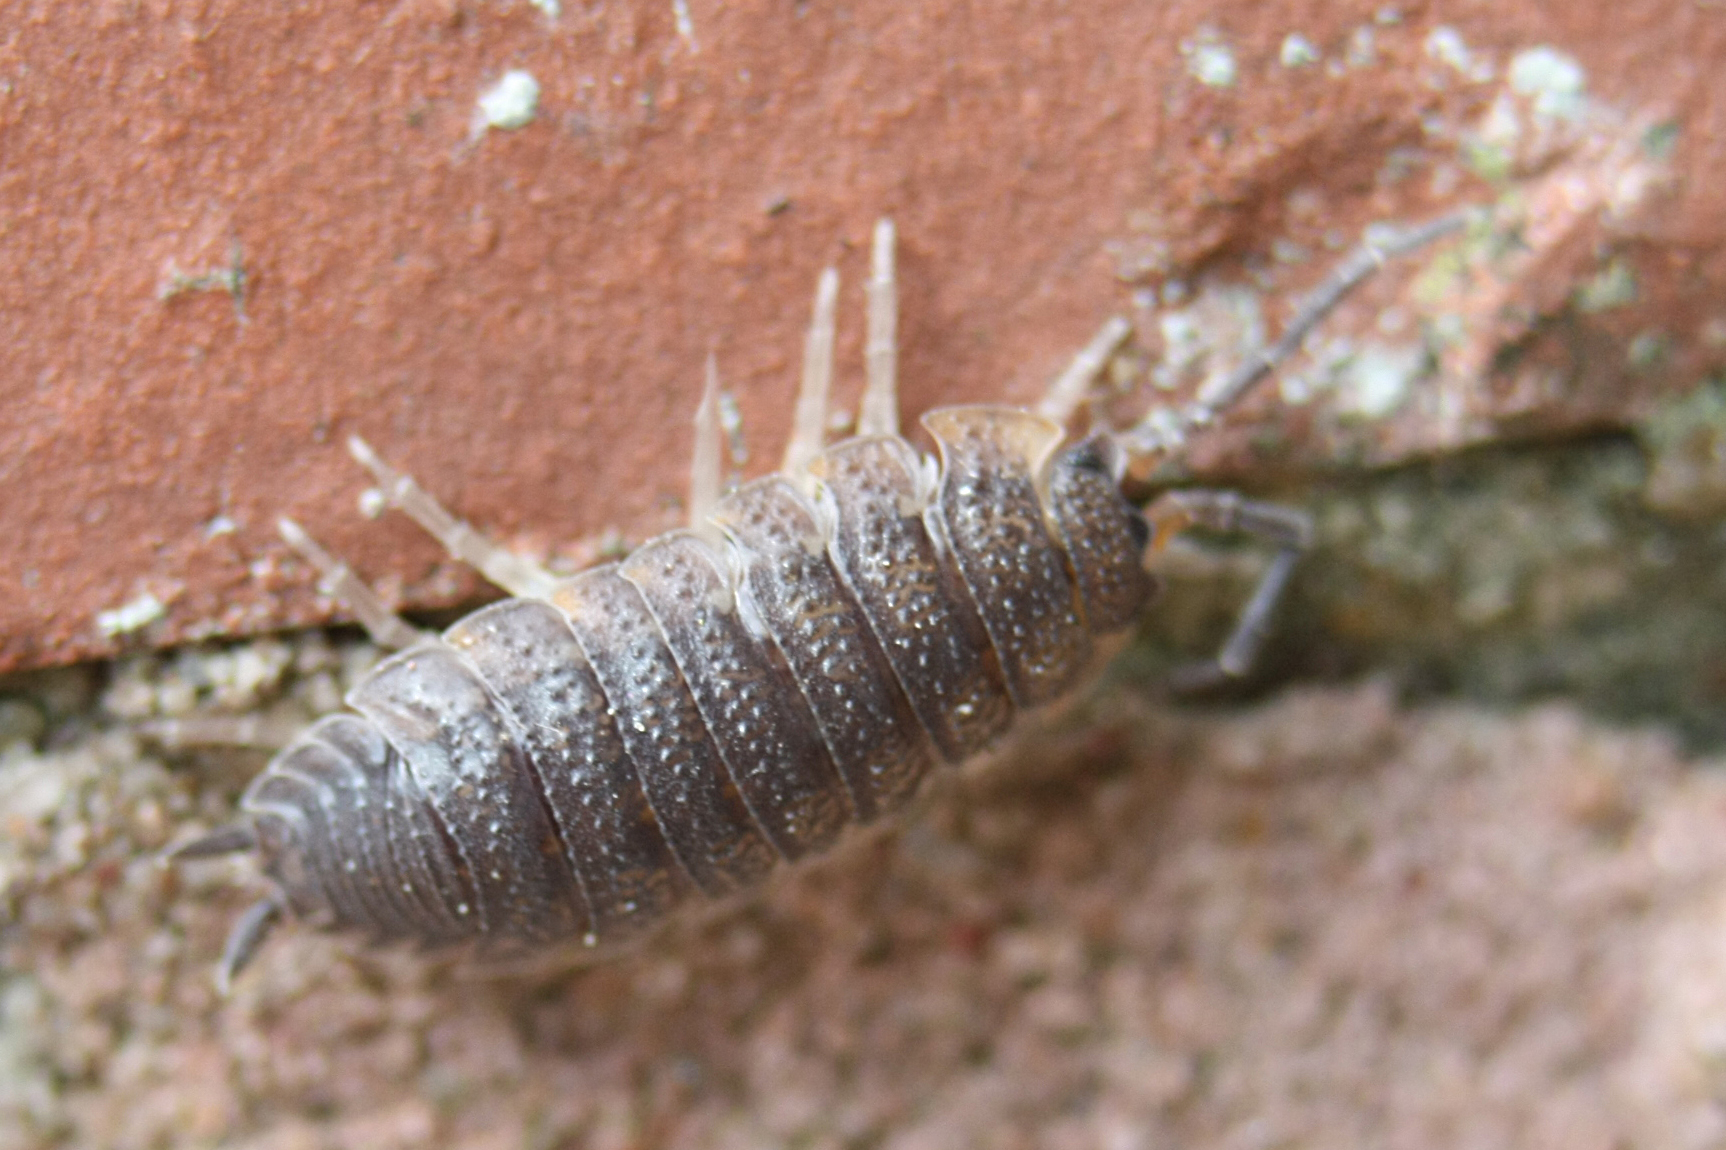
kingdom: Animalia
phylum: Arthropoda
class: Malacostraca
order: Isopoda
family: Porcellionidae
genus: Porcellio
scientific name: Porcellio scaber
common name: Common rough woodlouse
